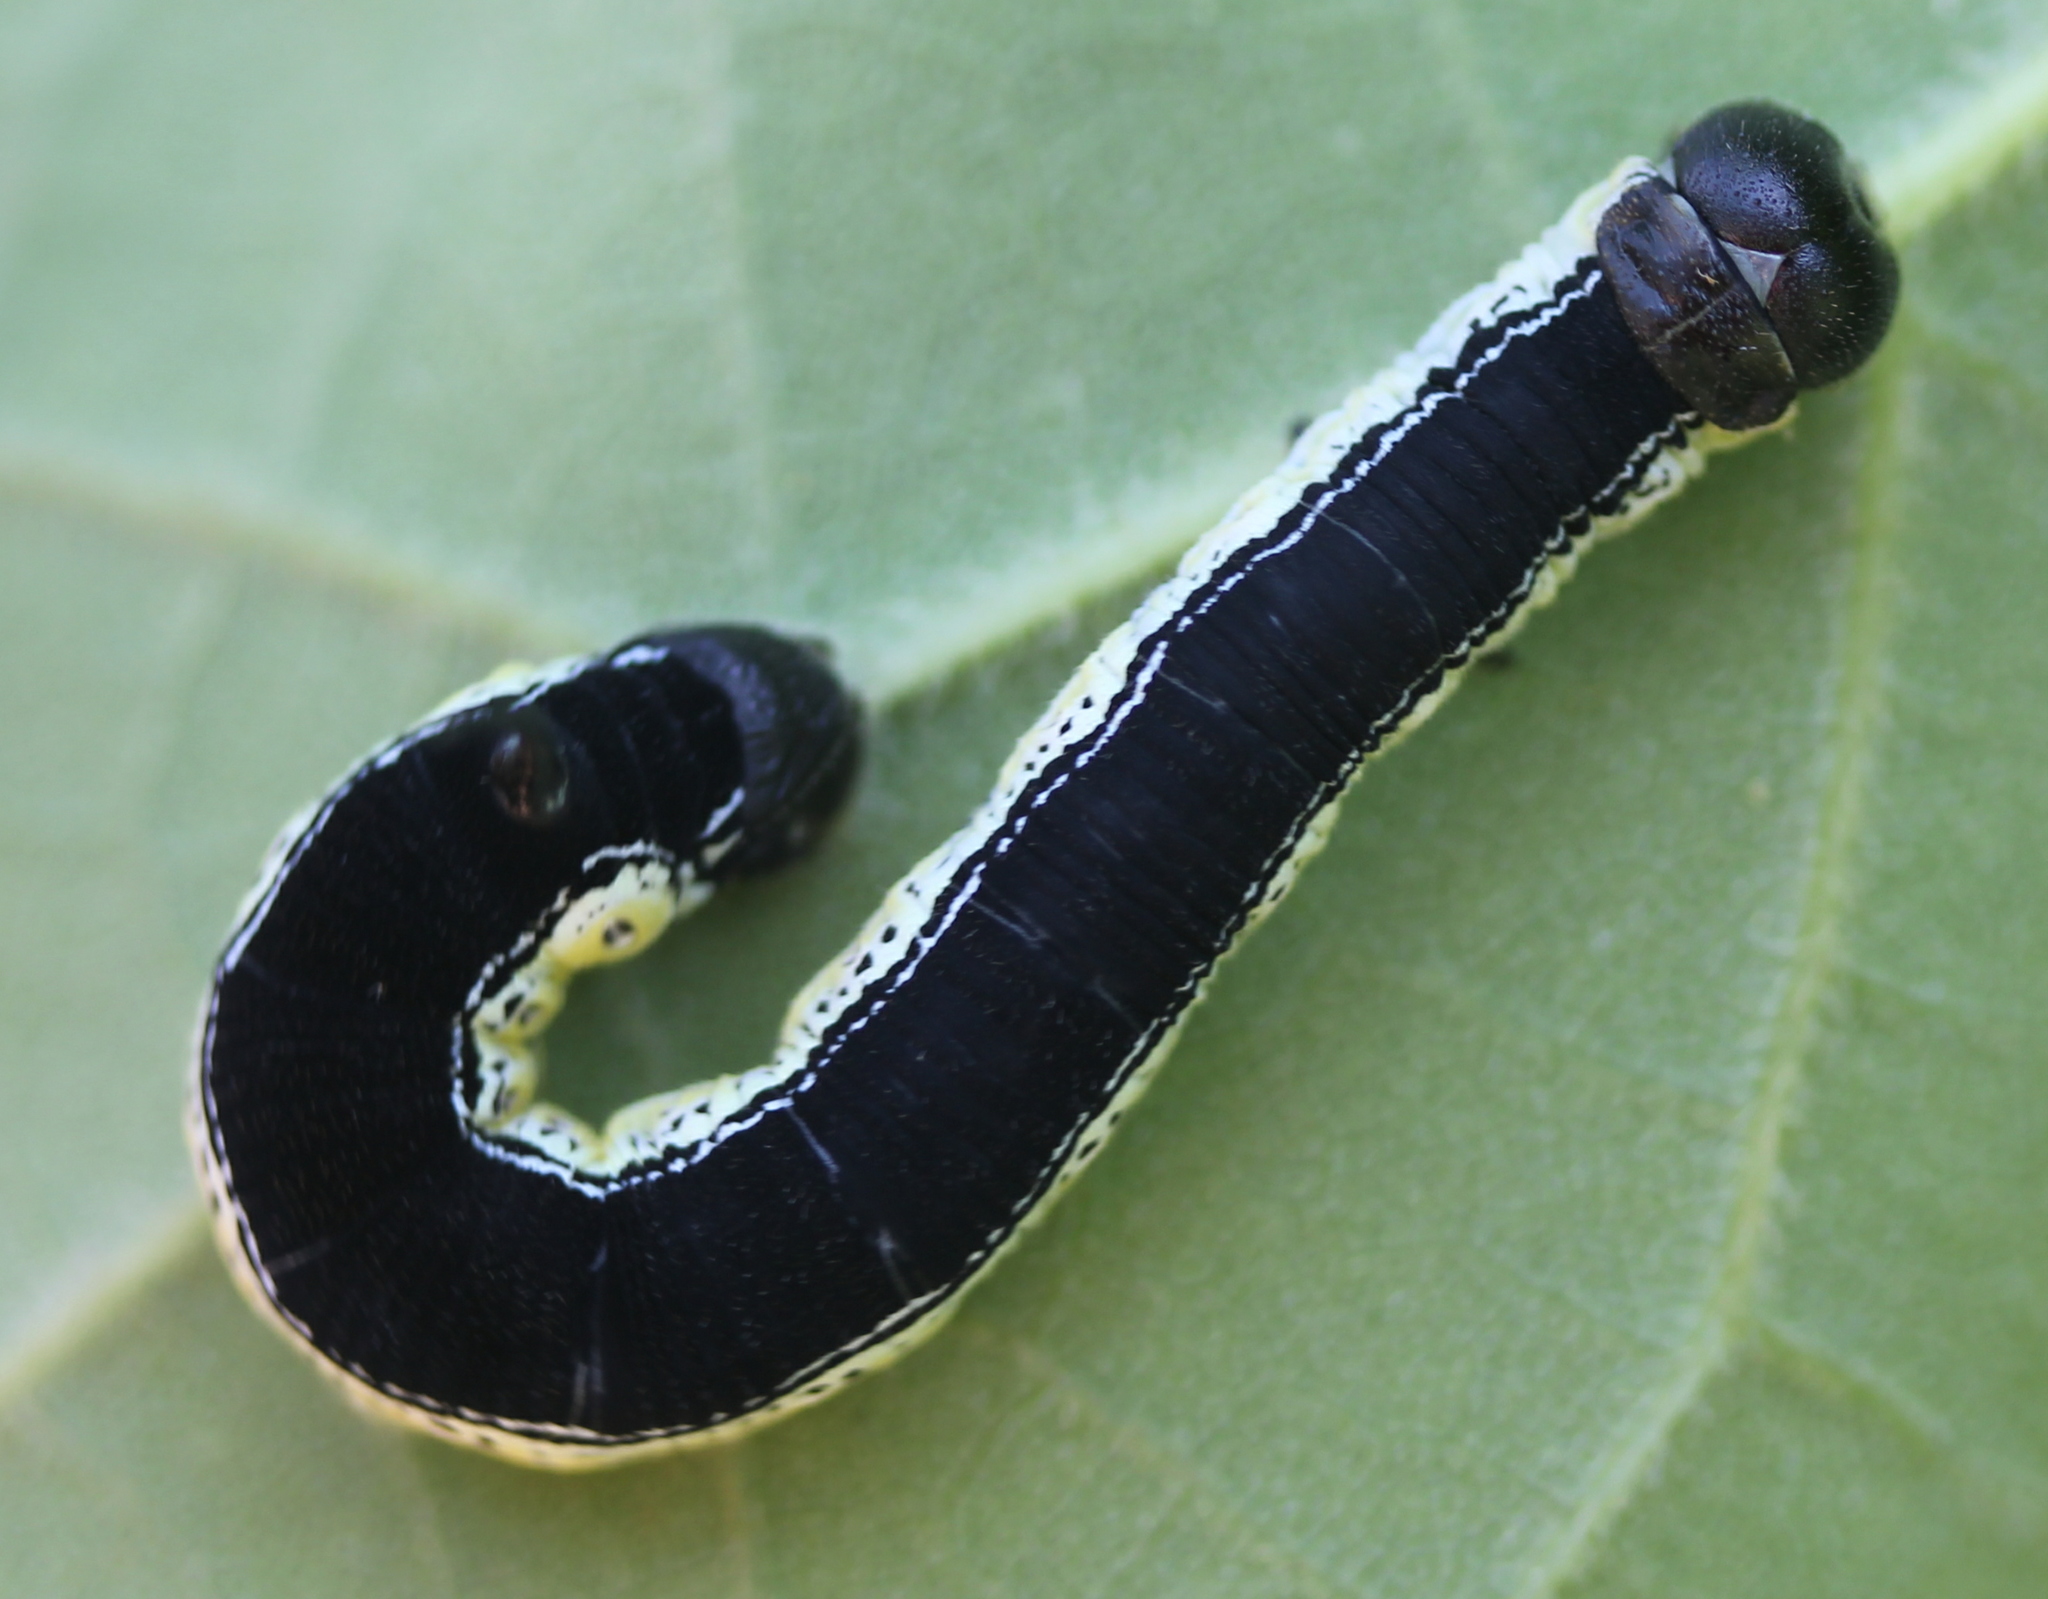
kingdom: Animalia
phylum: Arthropoda
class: Insecta
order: Lepidoptera
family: Sphingidae
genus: Ceratomia
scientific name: Ceratomia catalpae
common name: Catalpa hornworm
